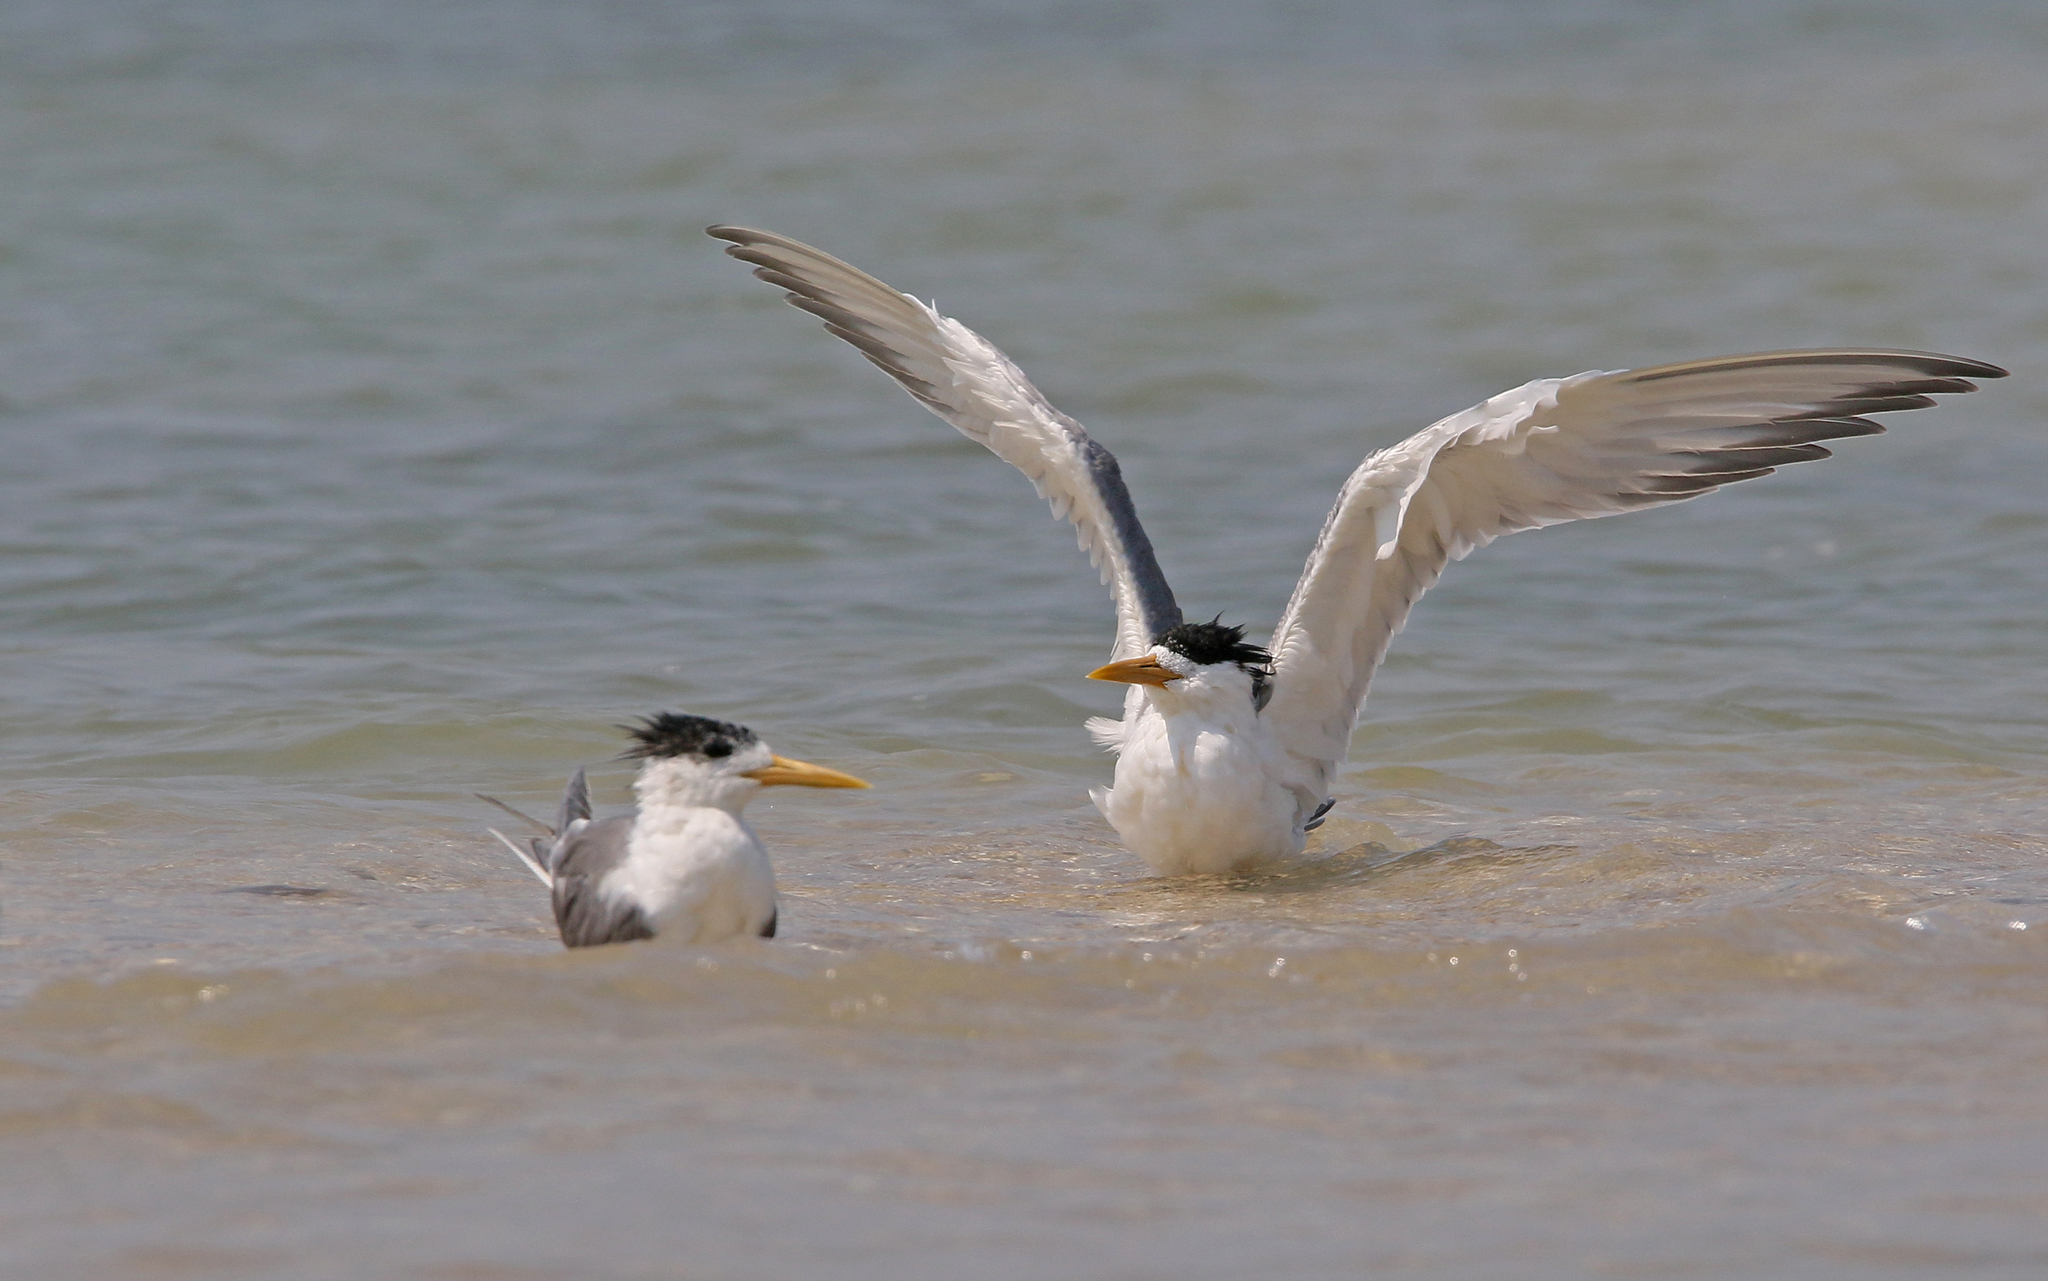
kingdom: Animalia
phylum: Chordata
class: Aves
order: Charadriiformes
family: Laridae
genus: Thalasseus
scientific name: Thalasseus bergii
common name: Greater crested tern
